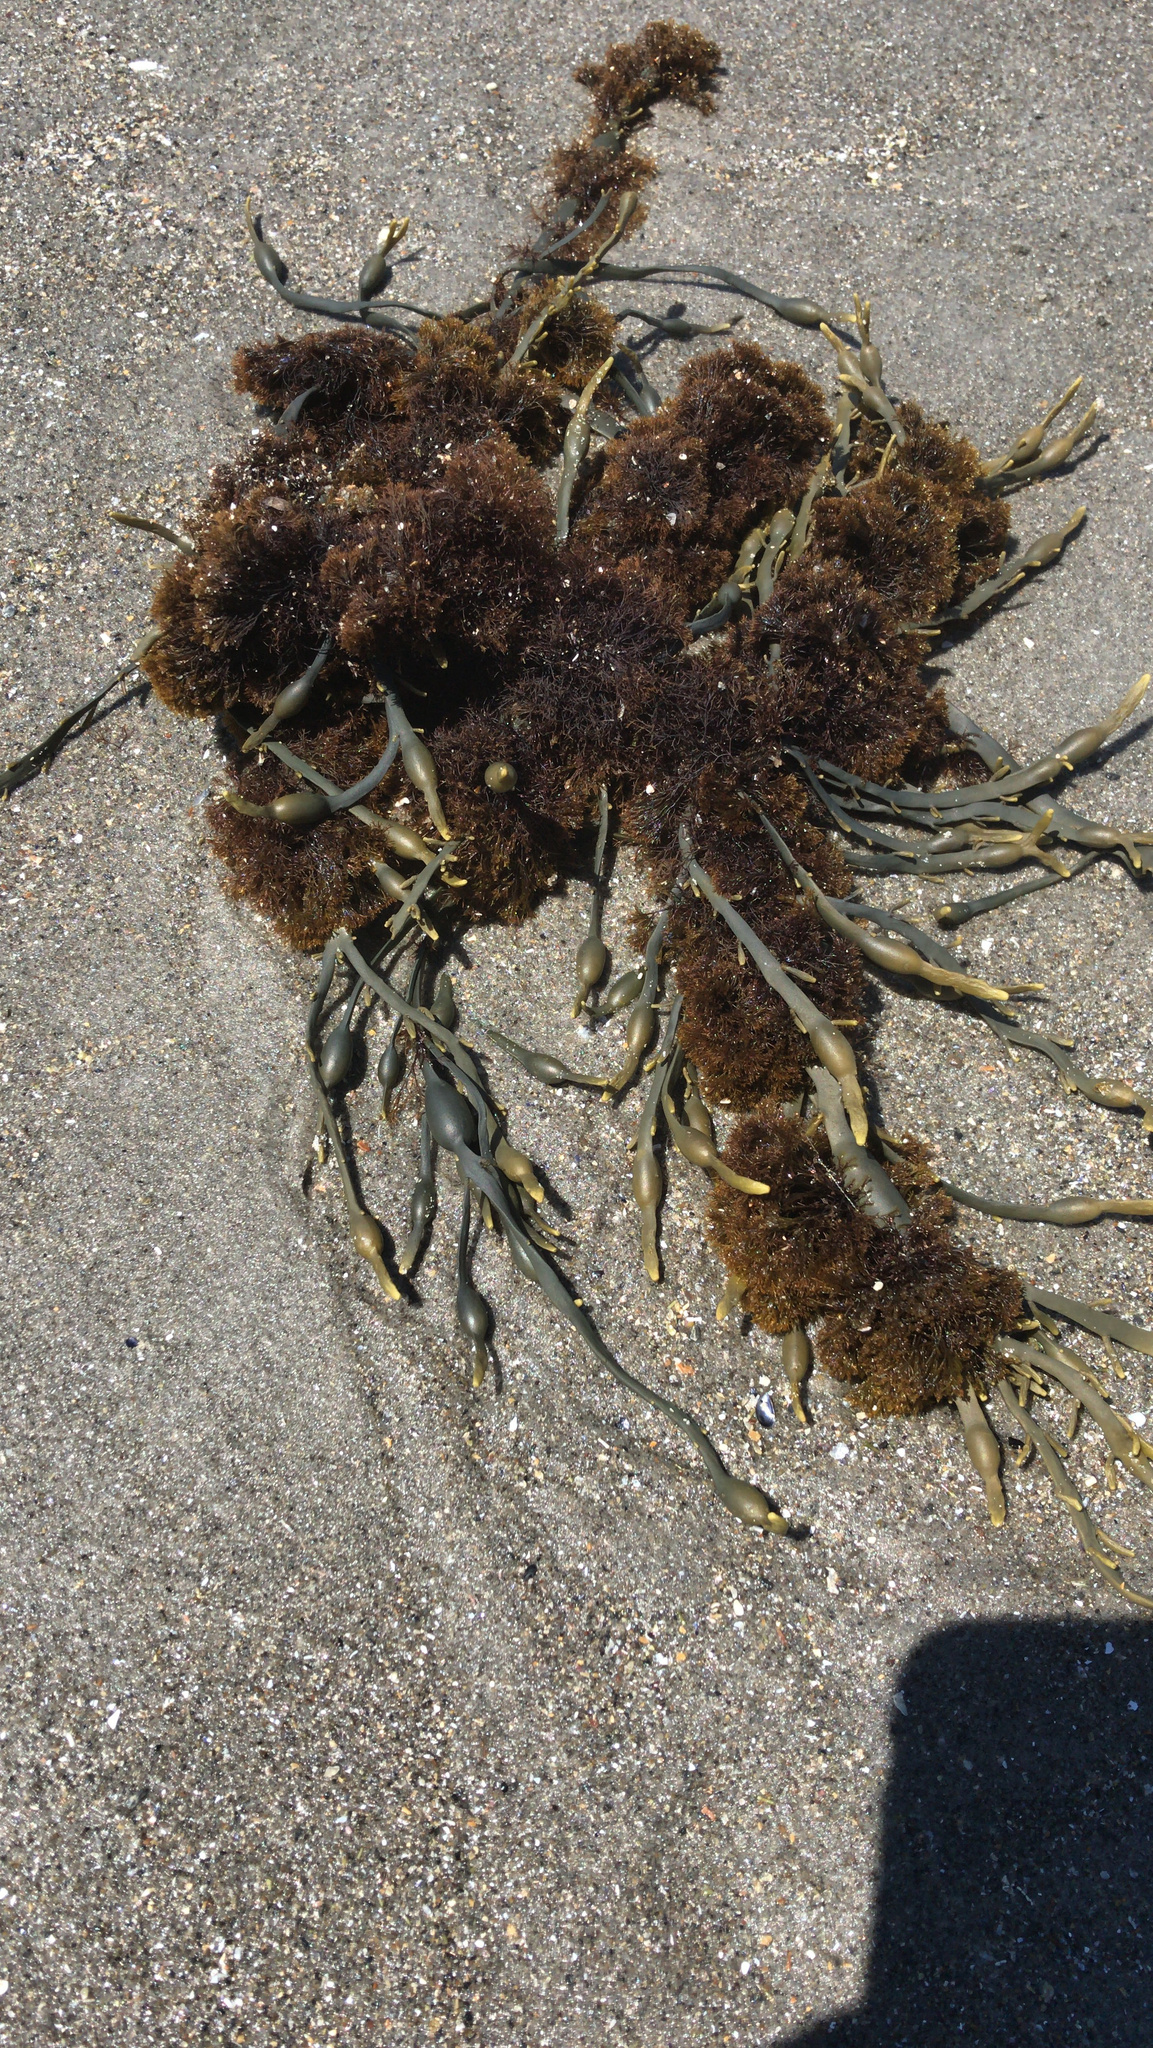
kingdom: Chromista
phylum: Ochrophyta
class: Phaeophyceae
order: Fucales
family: Fucaceae
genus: Ascophyllum
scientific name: Ascophyllum nodosum
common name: Knotted wrack
